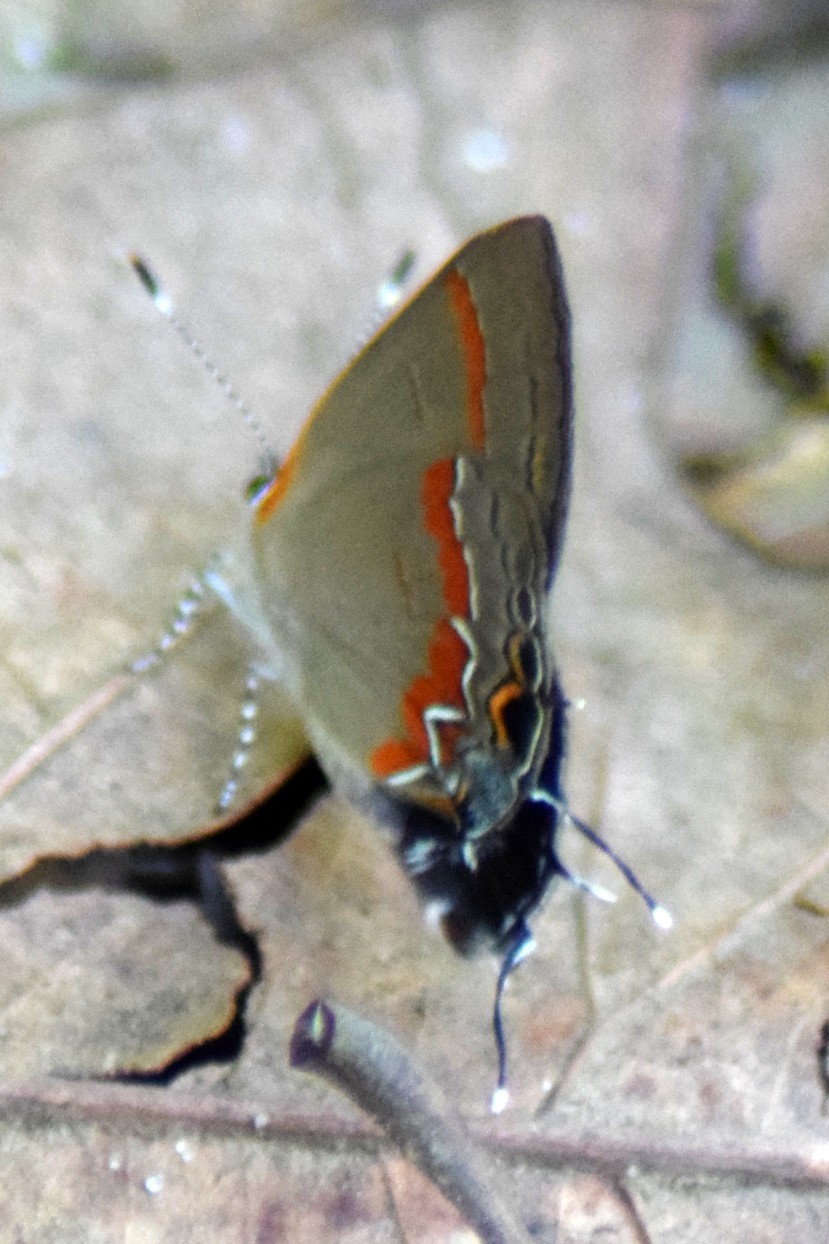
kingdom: Animalia
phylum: Arthropoda
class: Insecta
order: Lepidoptera
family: Lycaenidae
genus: Calycopis
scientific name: Calycopis cecrops
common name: Red-banded hairstreak
